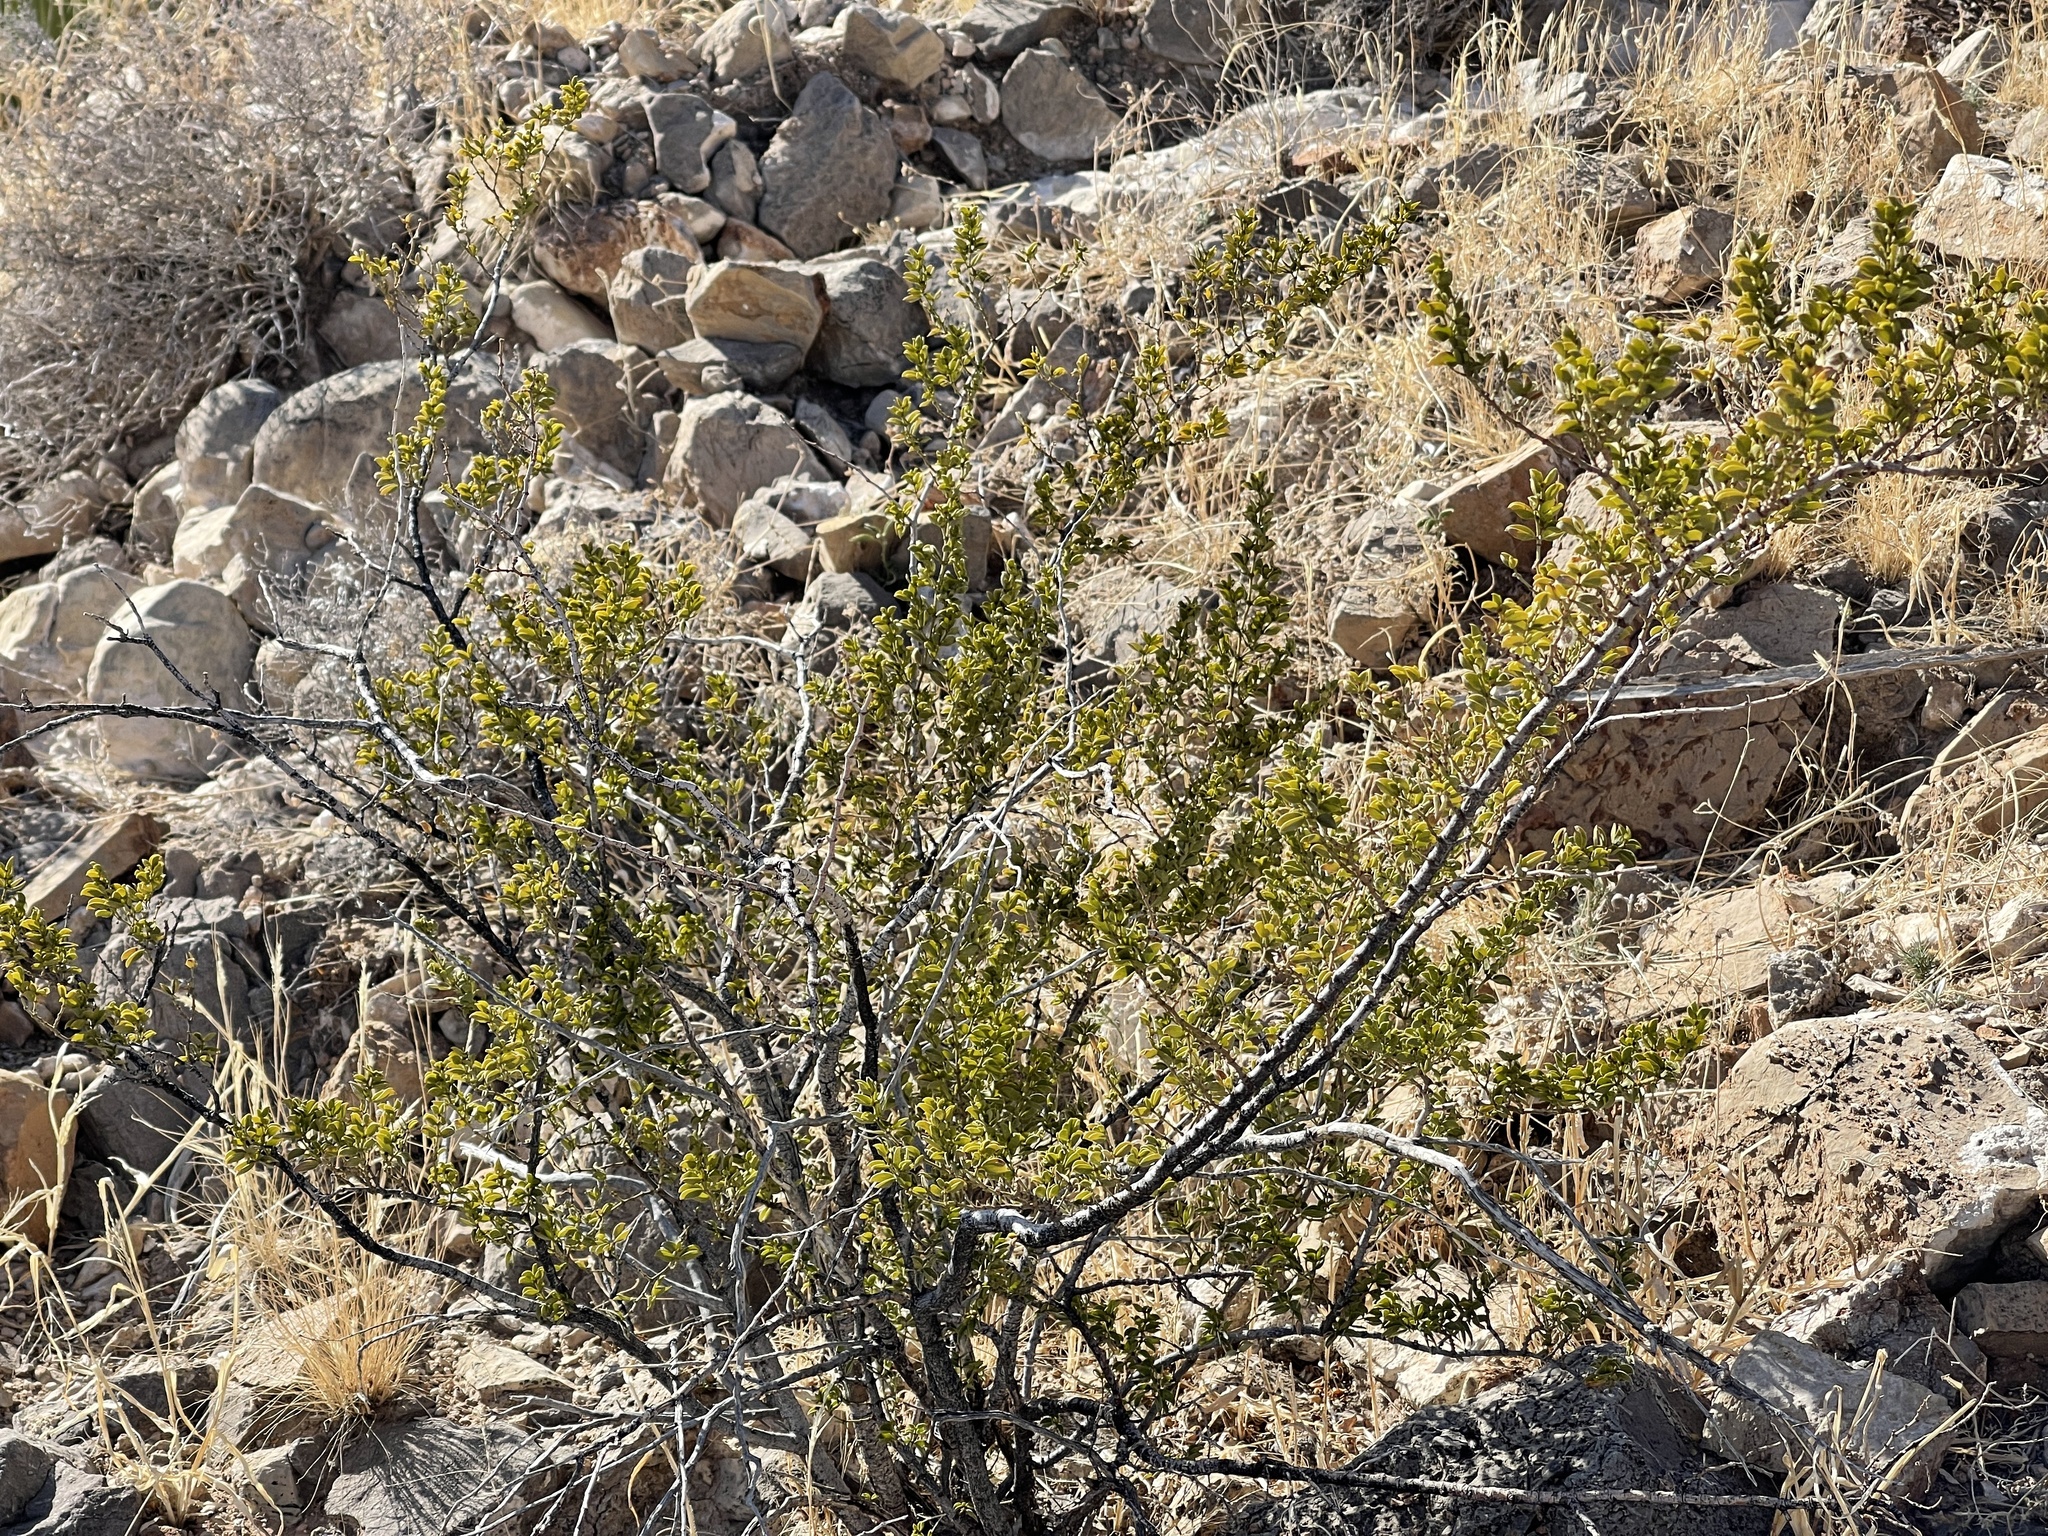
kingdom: Plantae
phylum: Tracheophyta
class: Magnoliopsida
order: Zygophyllales
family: Zygophyllaceae
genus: Larrea
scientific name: Larrea tridentata
